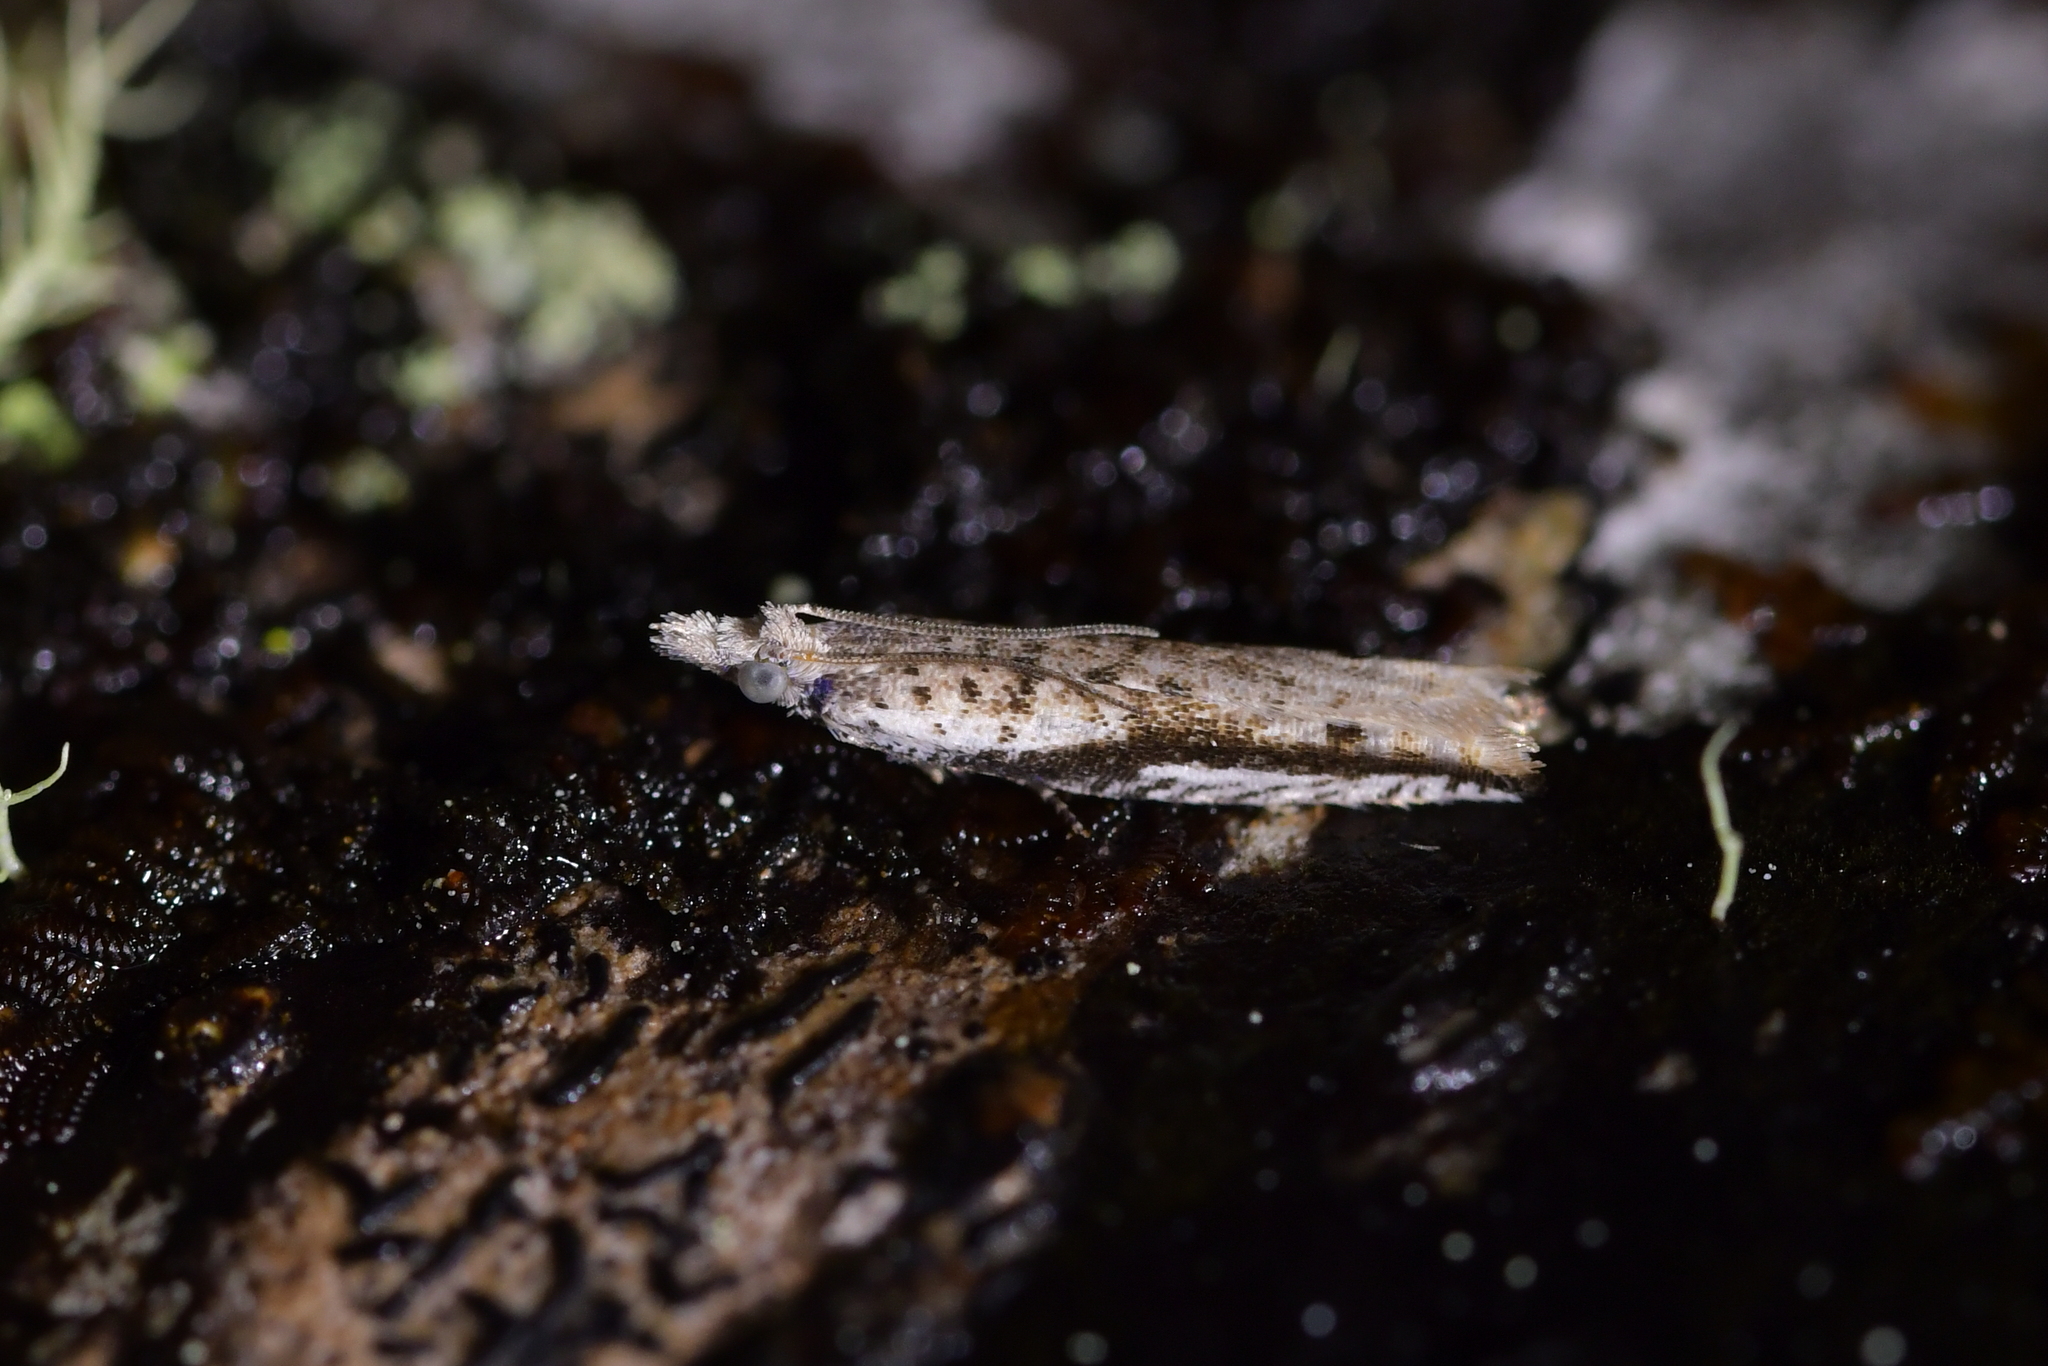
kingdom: Animalia
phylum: Arthropoda
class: Insecta
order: Lepidoptera
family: Tortricidae
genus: Holocola
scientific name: Holocola
